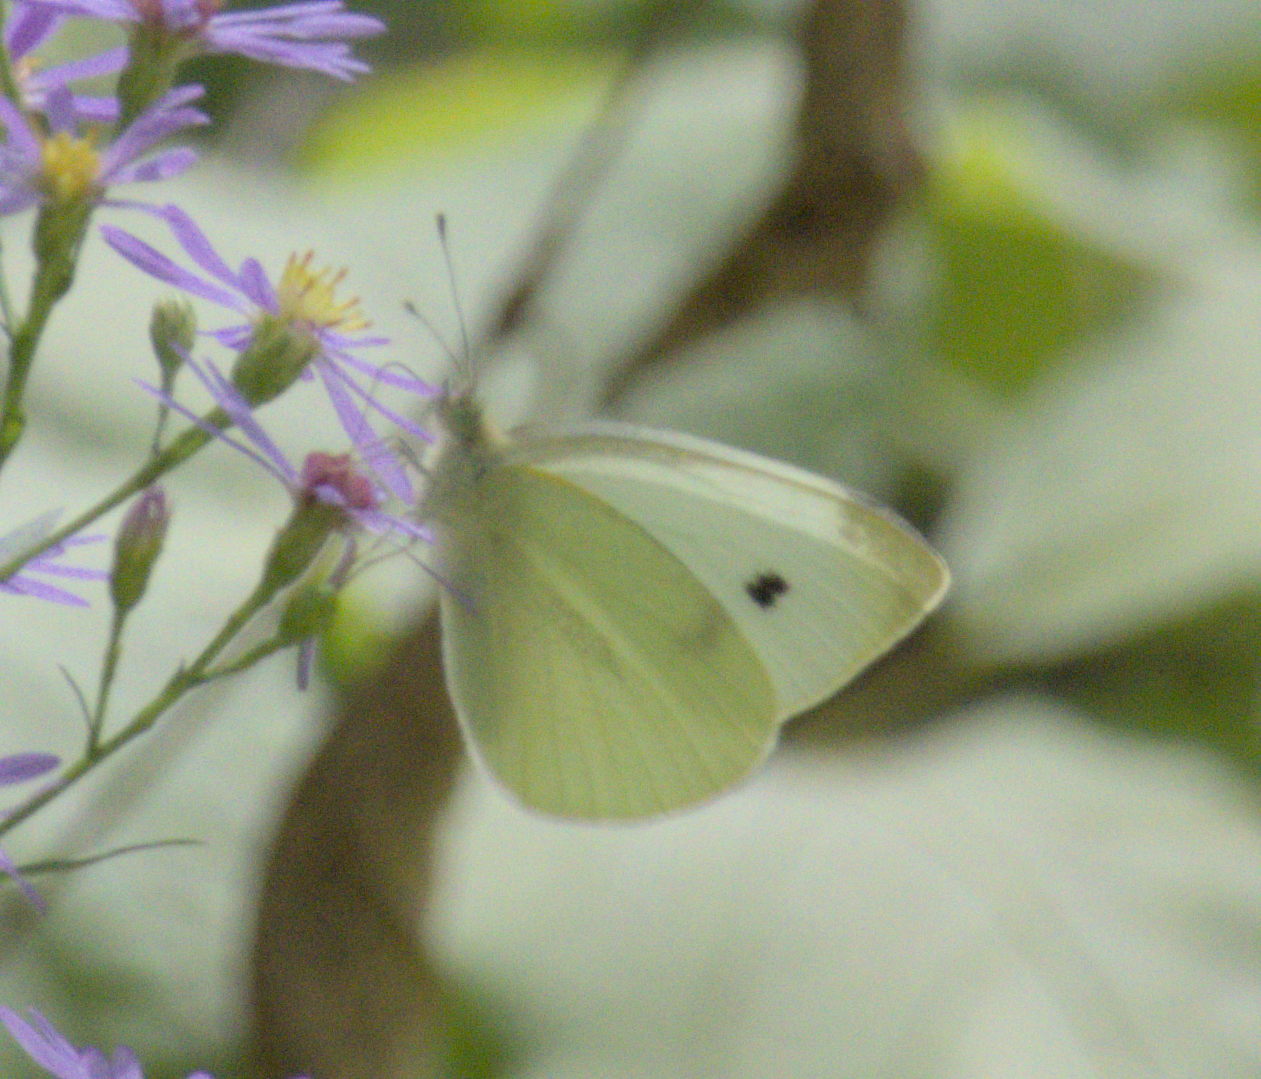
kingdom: Animalia
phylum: Arthropoda
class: Insecta
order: Lepidoptera
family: Pieridae
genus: Pieris
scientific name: Pieris rapae
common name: Small white
